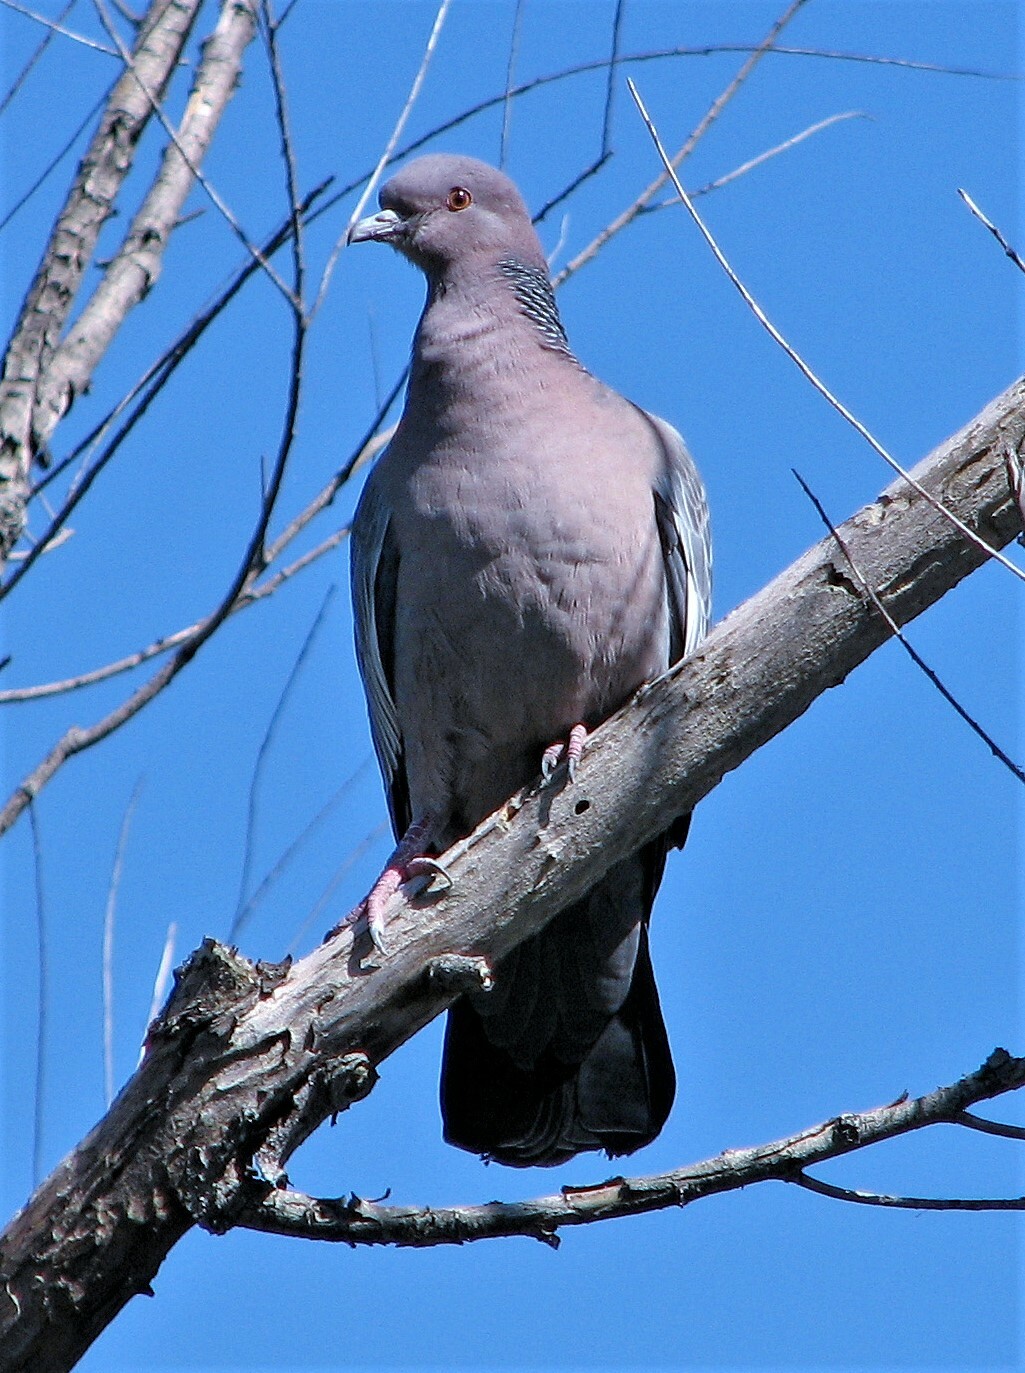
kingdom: Animalia
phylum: Chordata
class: Aves
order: Columbiformes
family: Columbidae
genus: Patagioenas
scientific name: Patagioenas picazuro
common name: Picazuro pigeon
